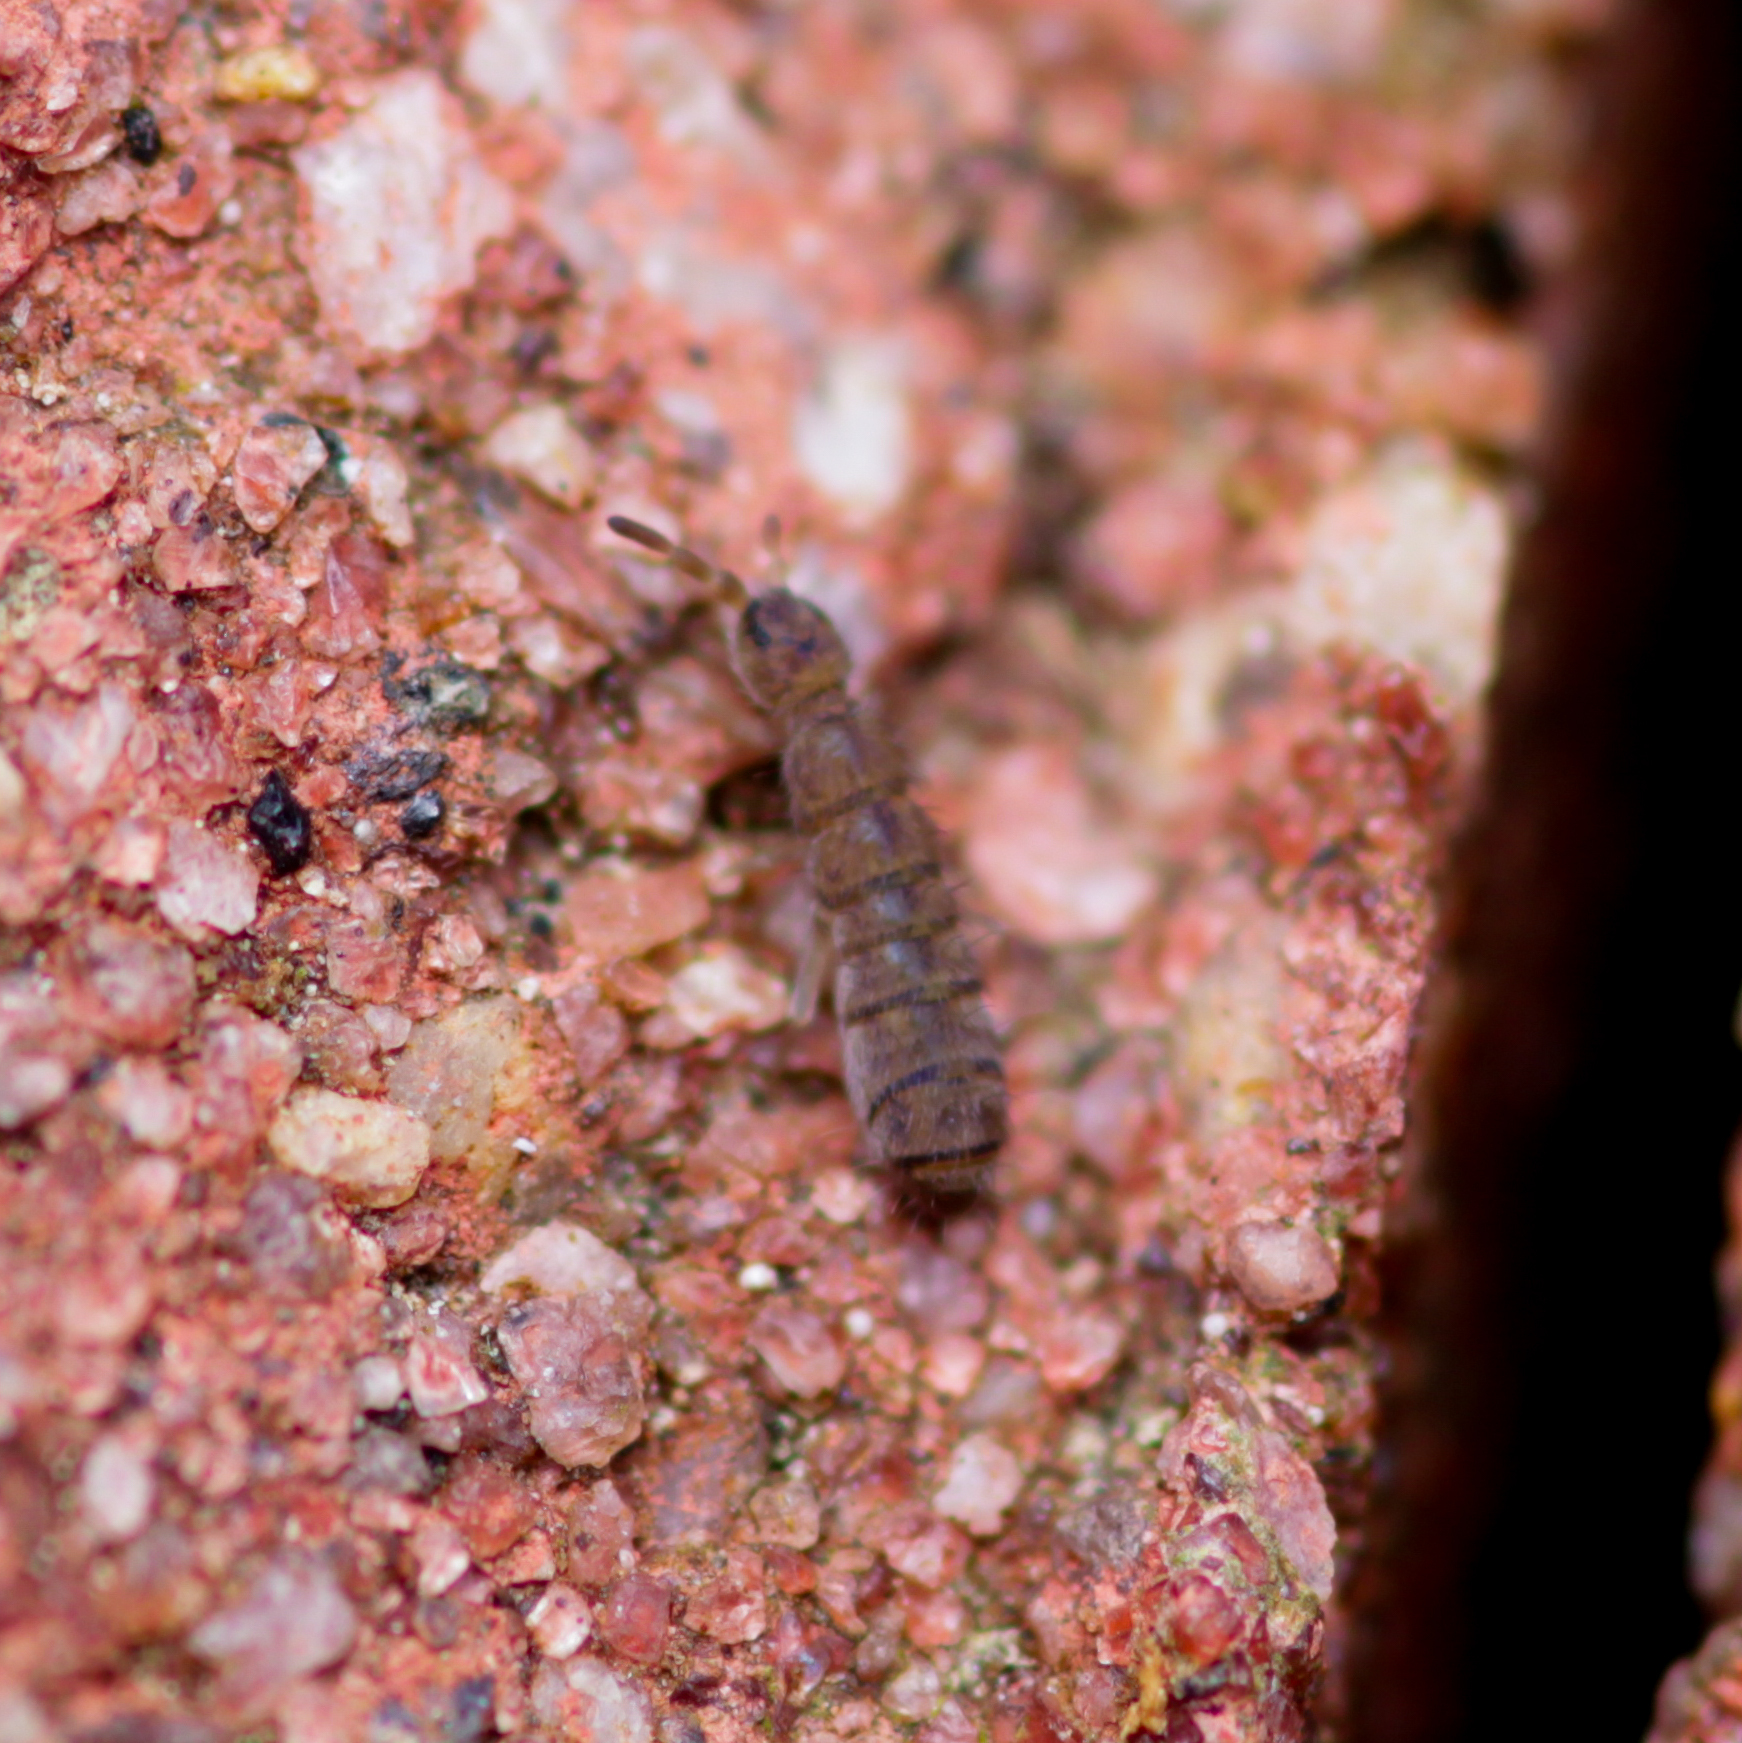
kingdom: Animalia
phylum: Arthropoda
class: Collembola
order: Entomobryomorpha
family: Isotomidae
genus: Isotoma
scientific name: Isotoma delta
